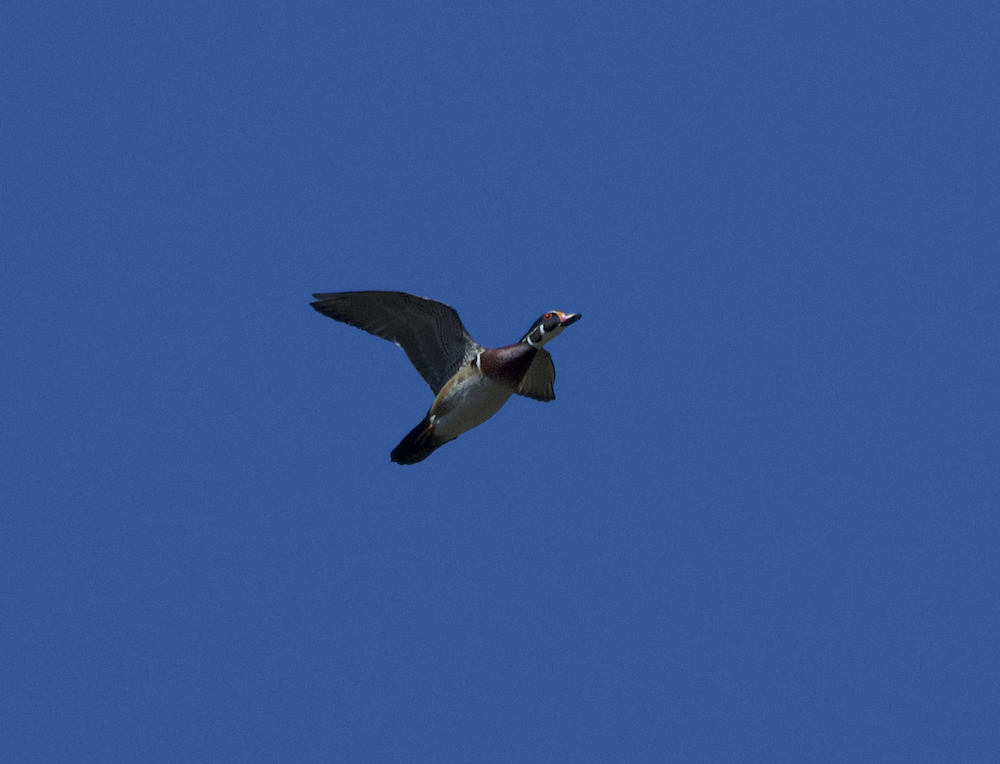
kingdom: Animalia
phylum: Chordata
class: Aves
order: Anseriformes
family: Anatidae
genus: Aix
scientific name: Aix sponsa
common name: Wood duck
